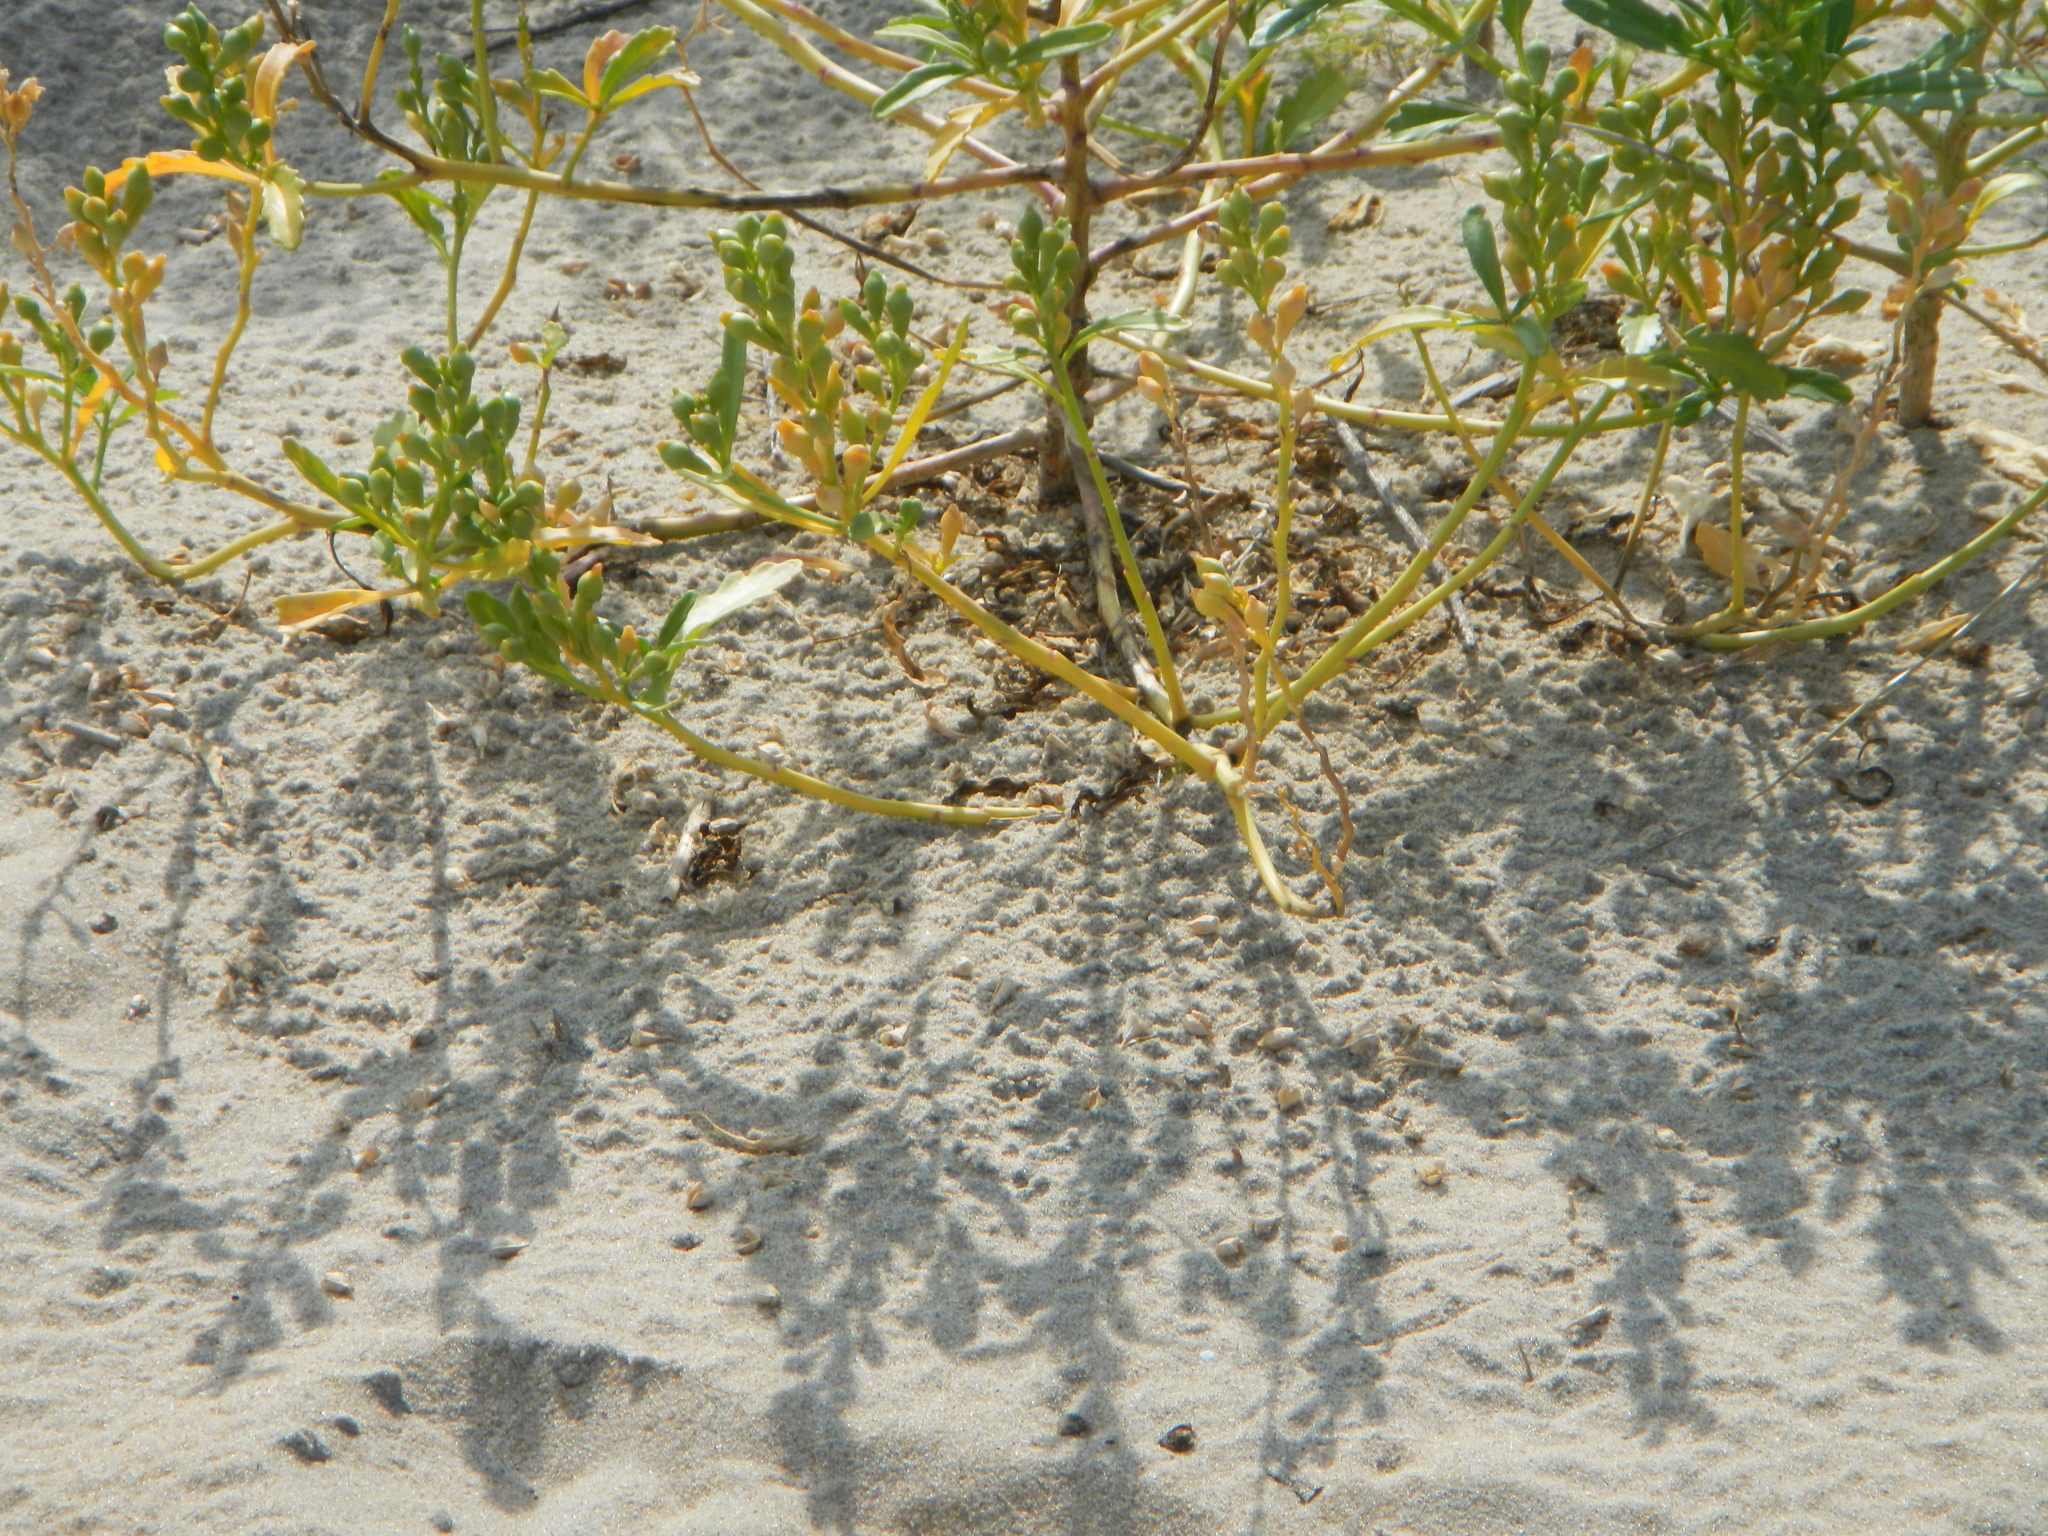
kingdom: Plantae
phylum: Tracheophyta
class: Magnoliopsida
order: Brassicales
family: Brassicaceae
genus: Cakile
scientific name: Cakile edentula
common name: American sea rocket
